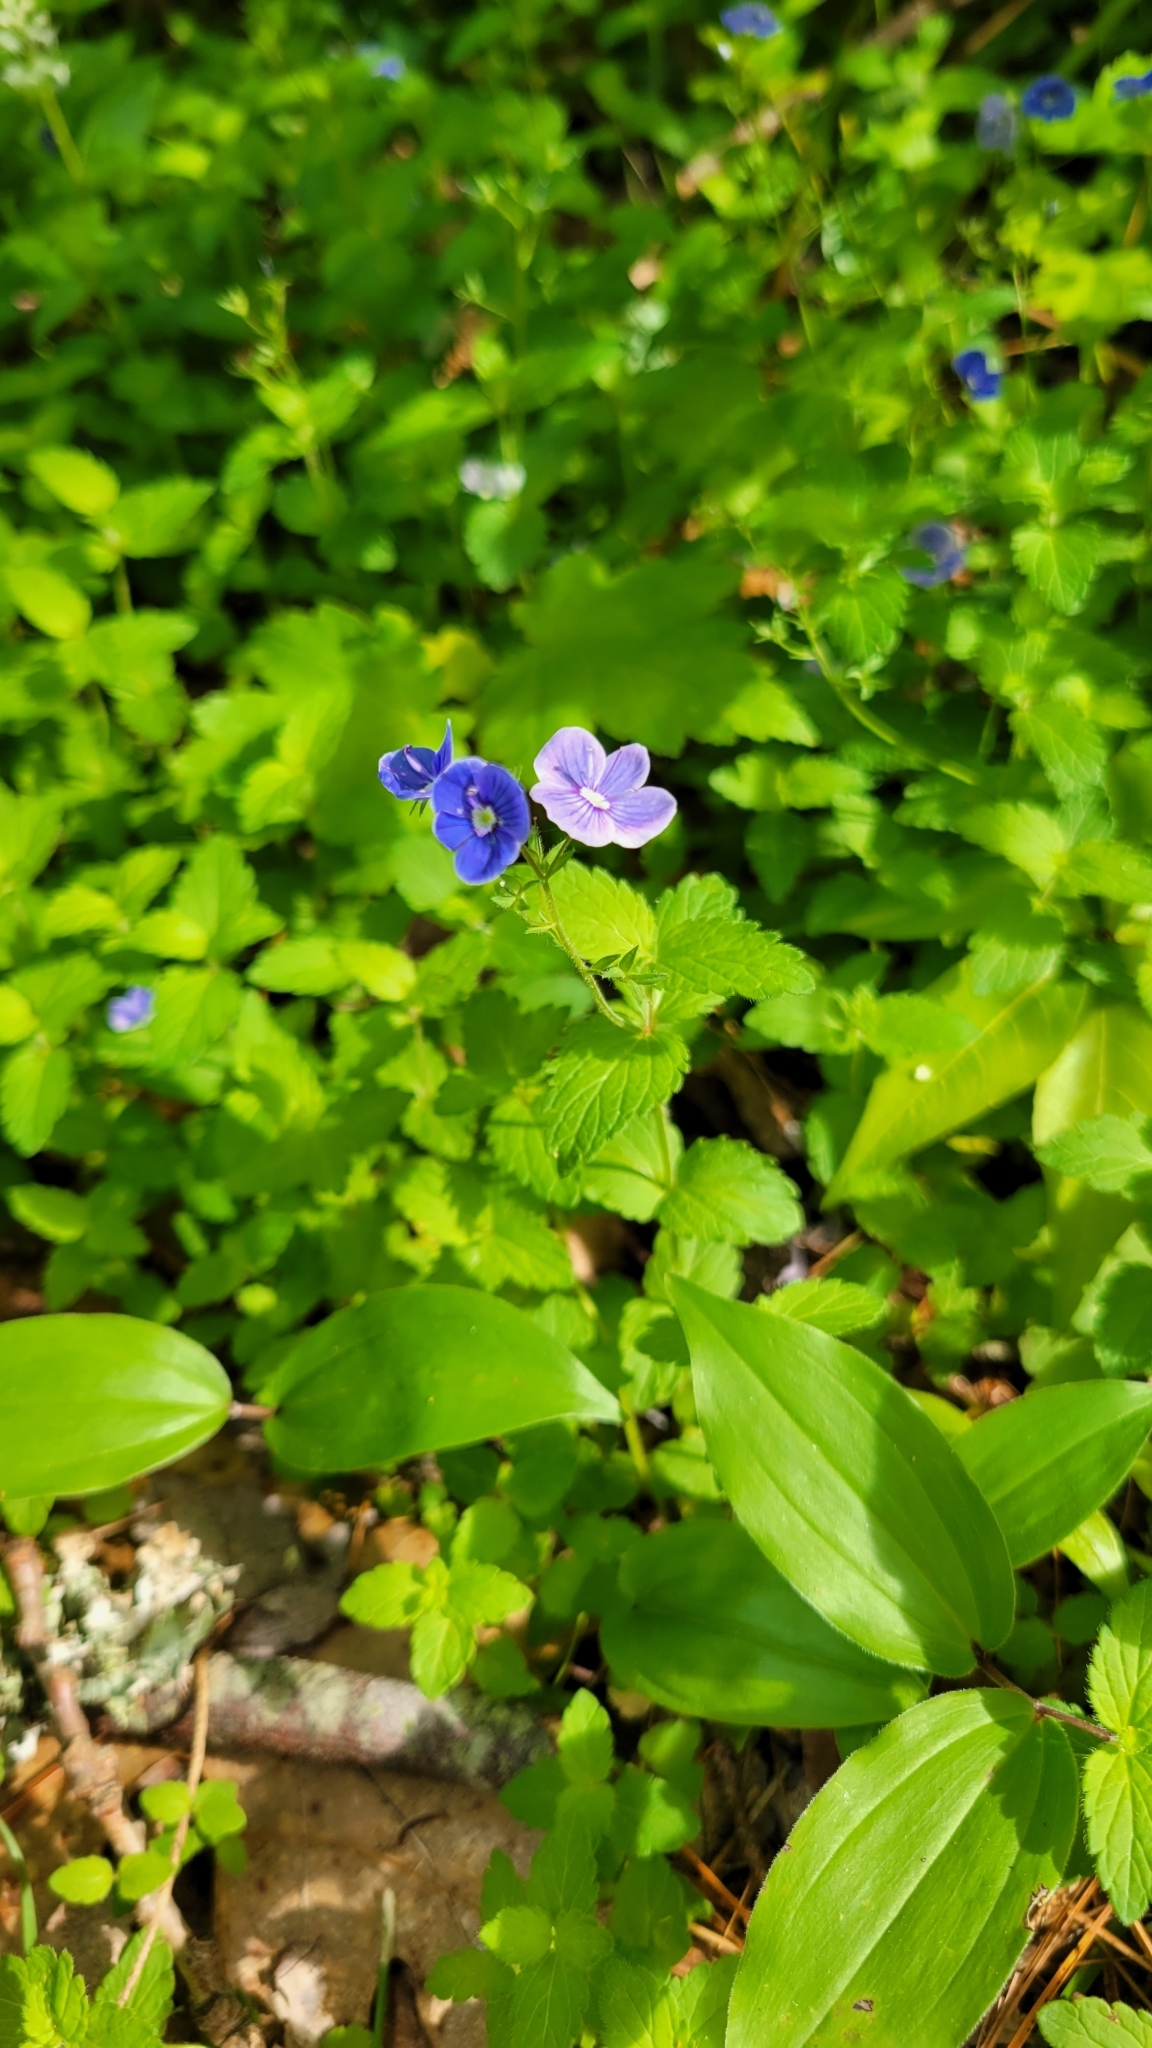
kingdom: Plantae
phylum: Tracheophyta
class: Magnoliopsida
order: Lamiales
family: Plantaginaceae
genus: Veronica
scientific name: Veronica chamaedrys
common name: Germander speedwell
